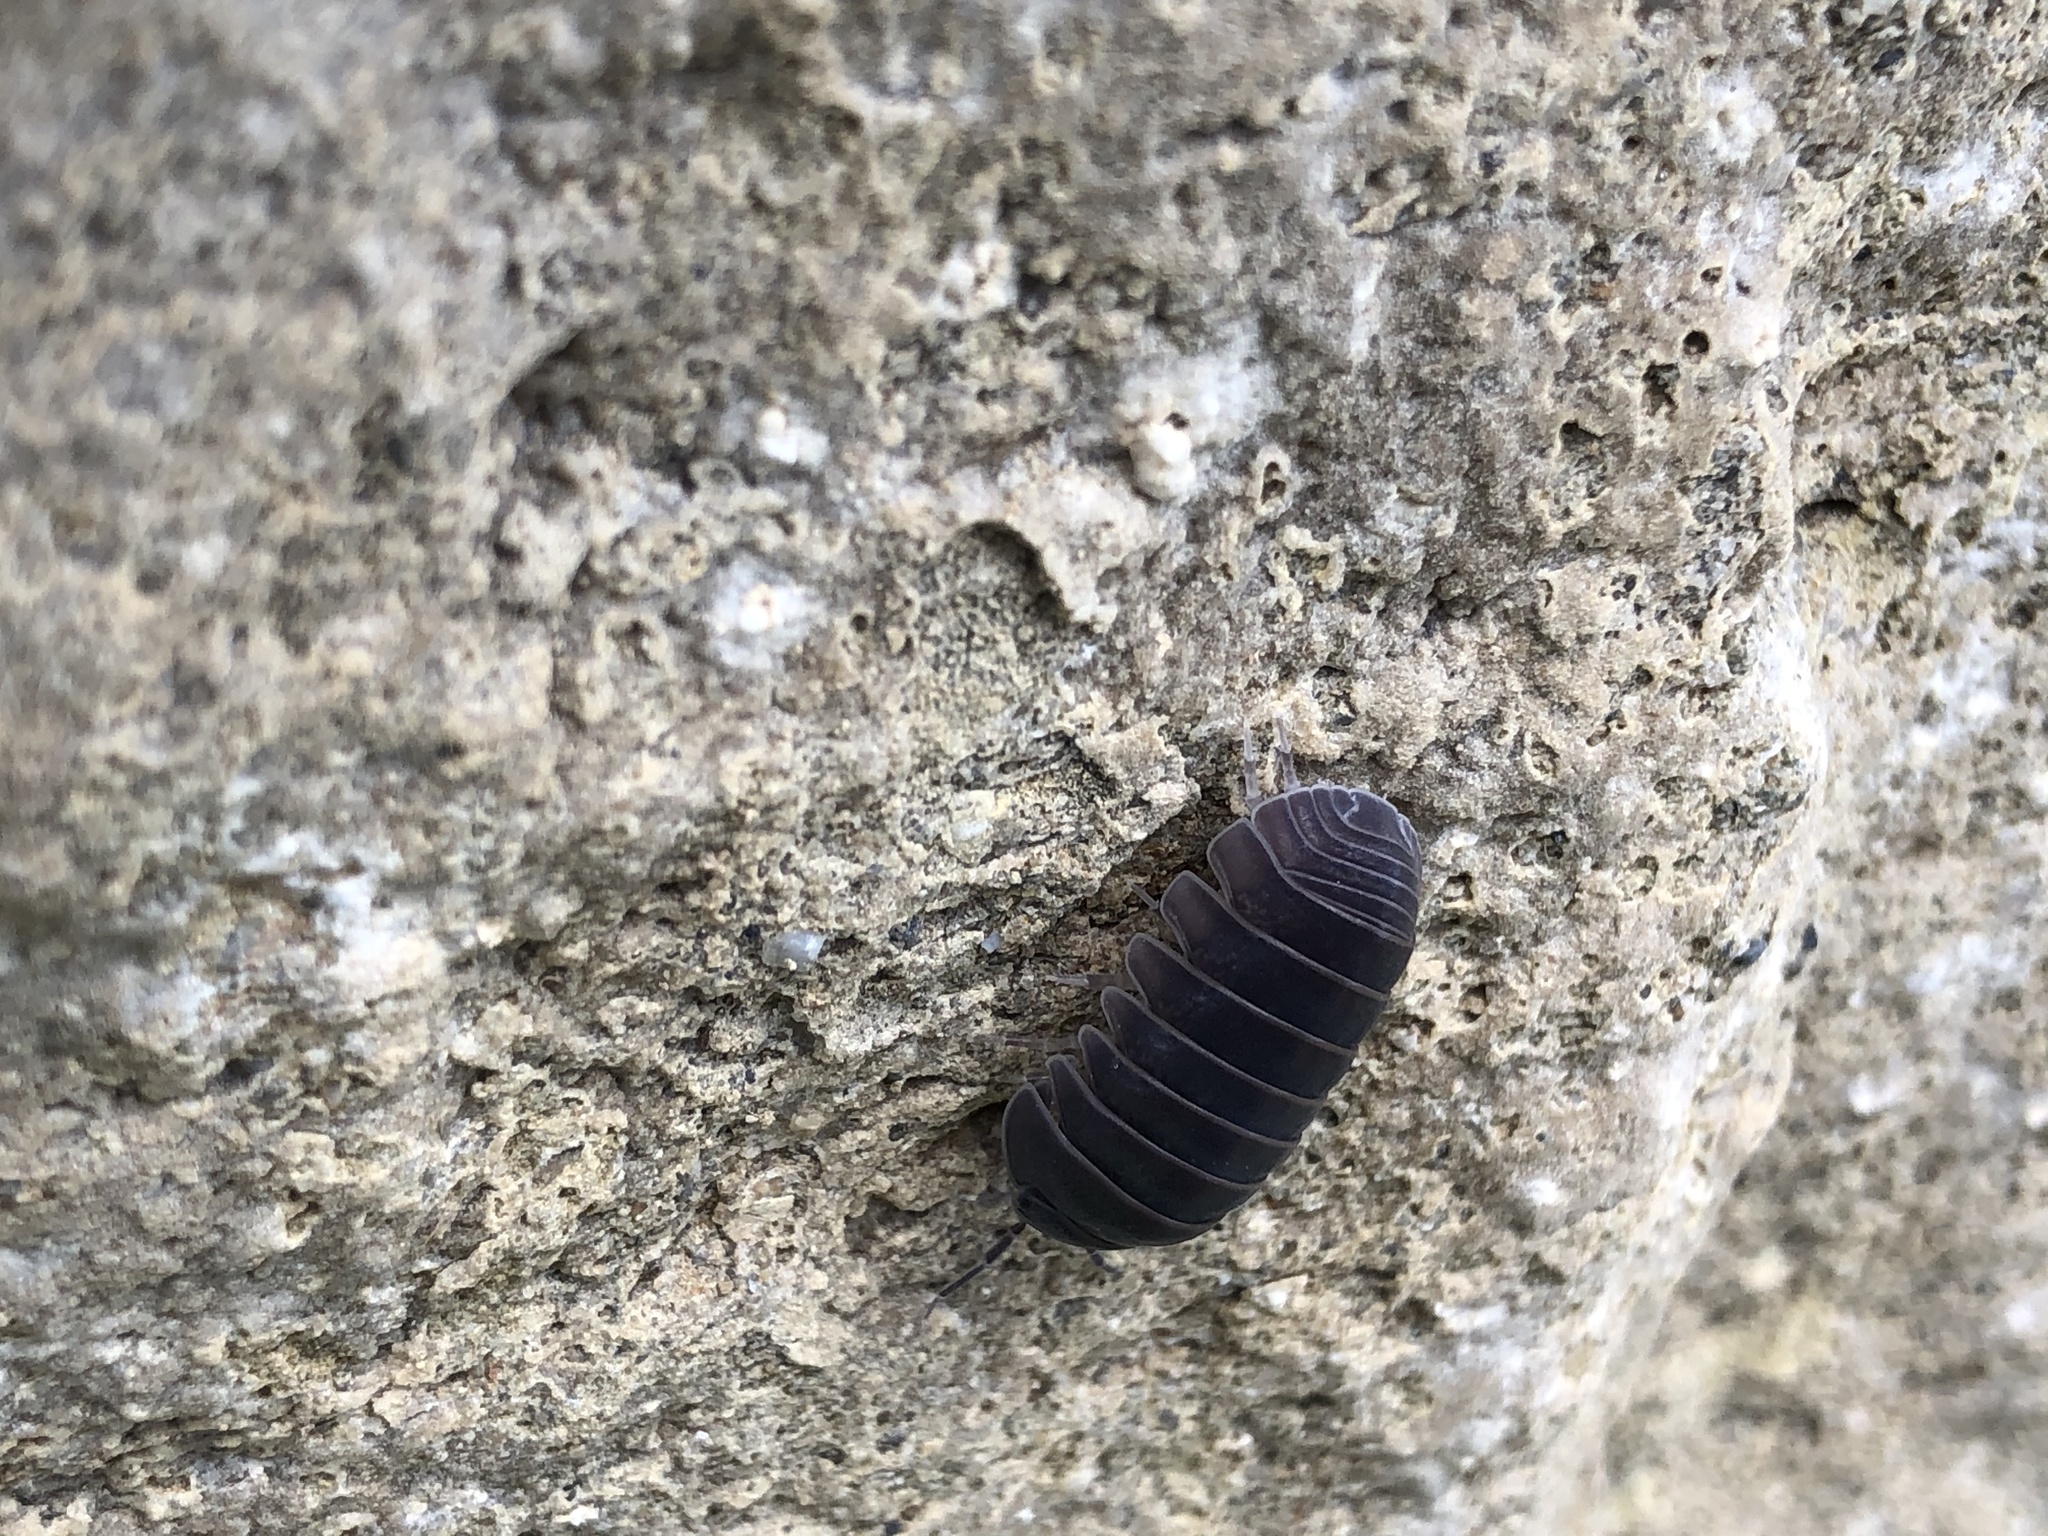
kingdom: Animalia
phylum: Arthropoda
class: Malacostraca
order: Isopoda
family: Armadillidae
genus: Armadillo
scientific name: Armadillo officinalis
